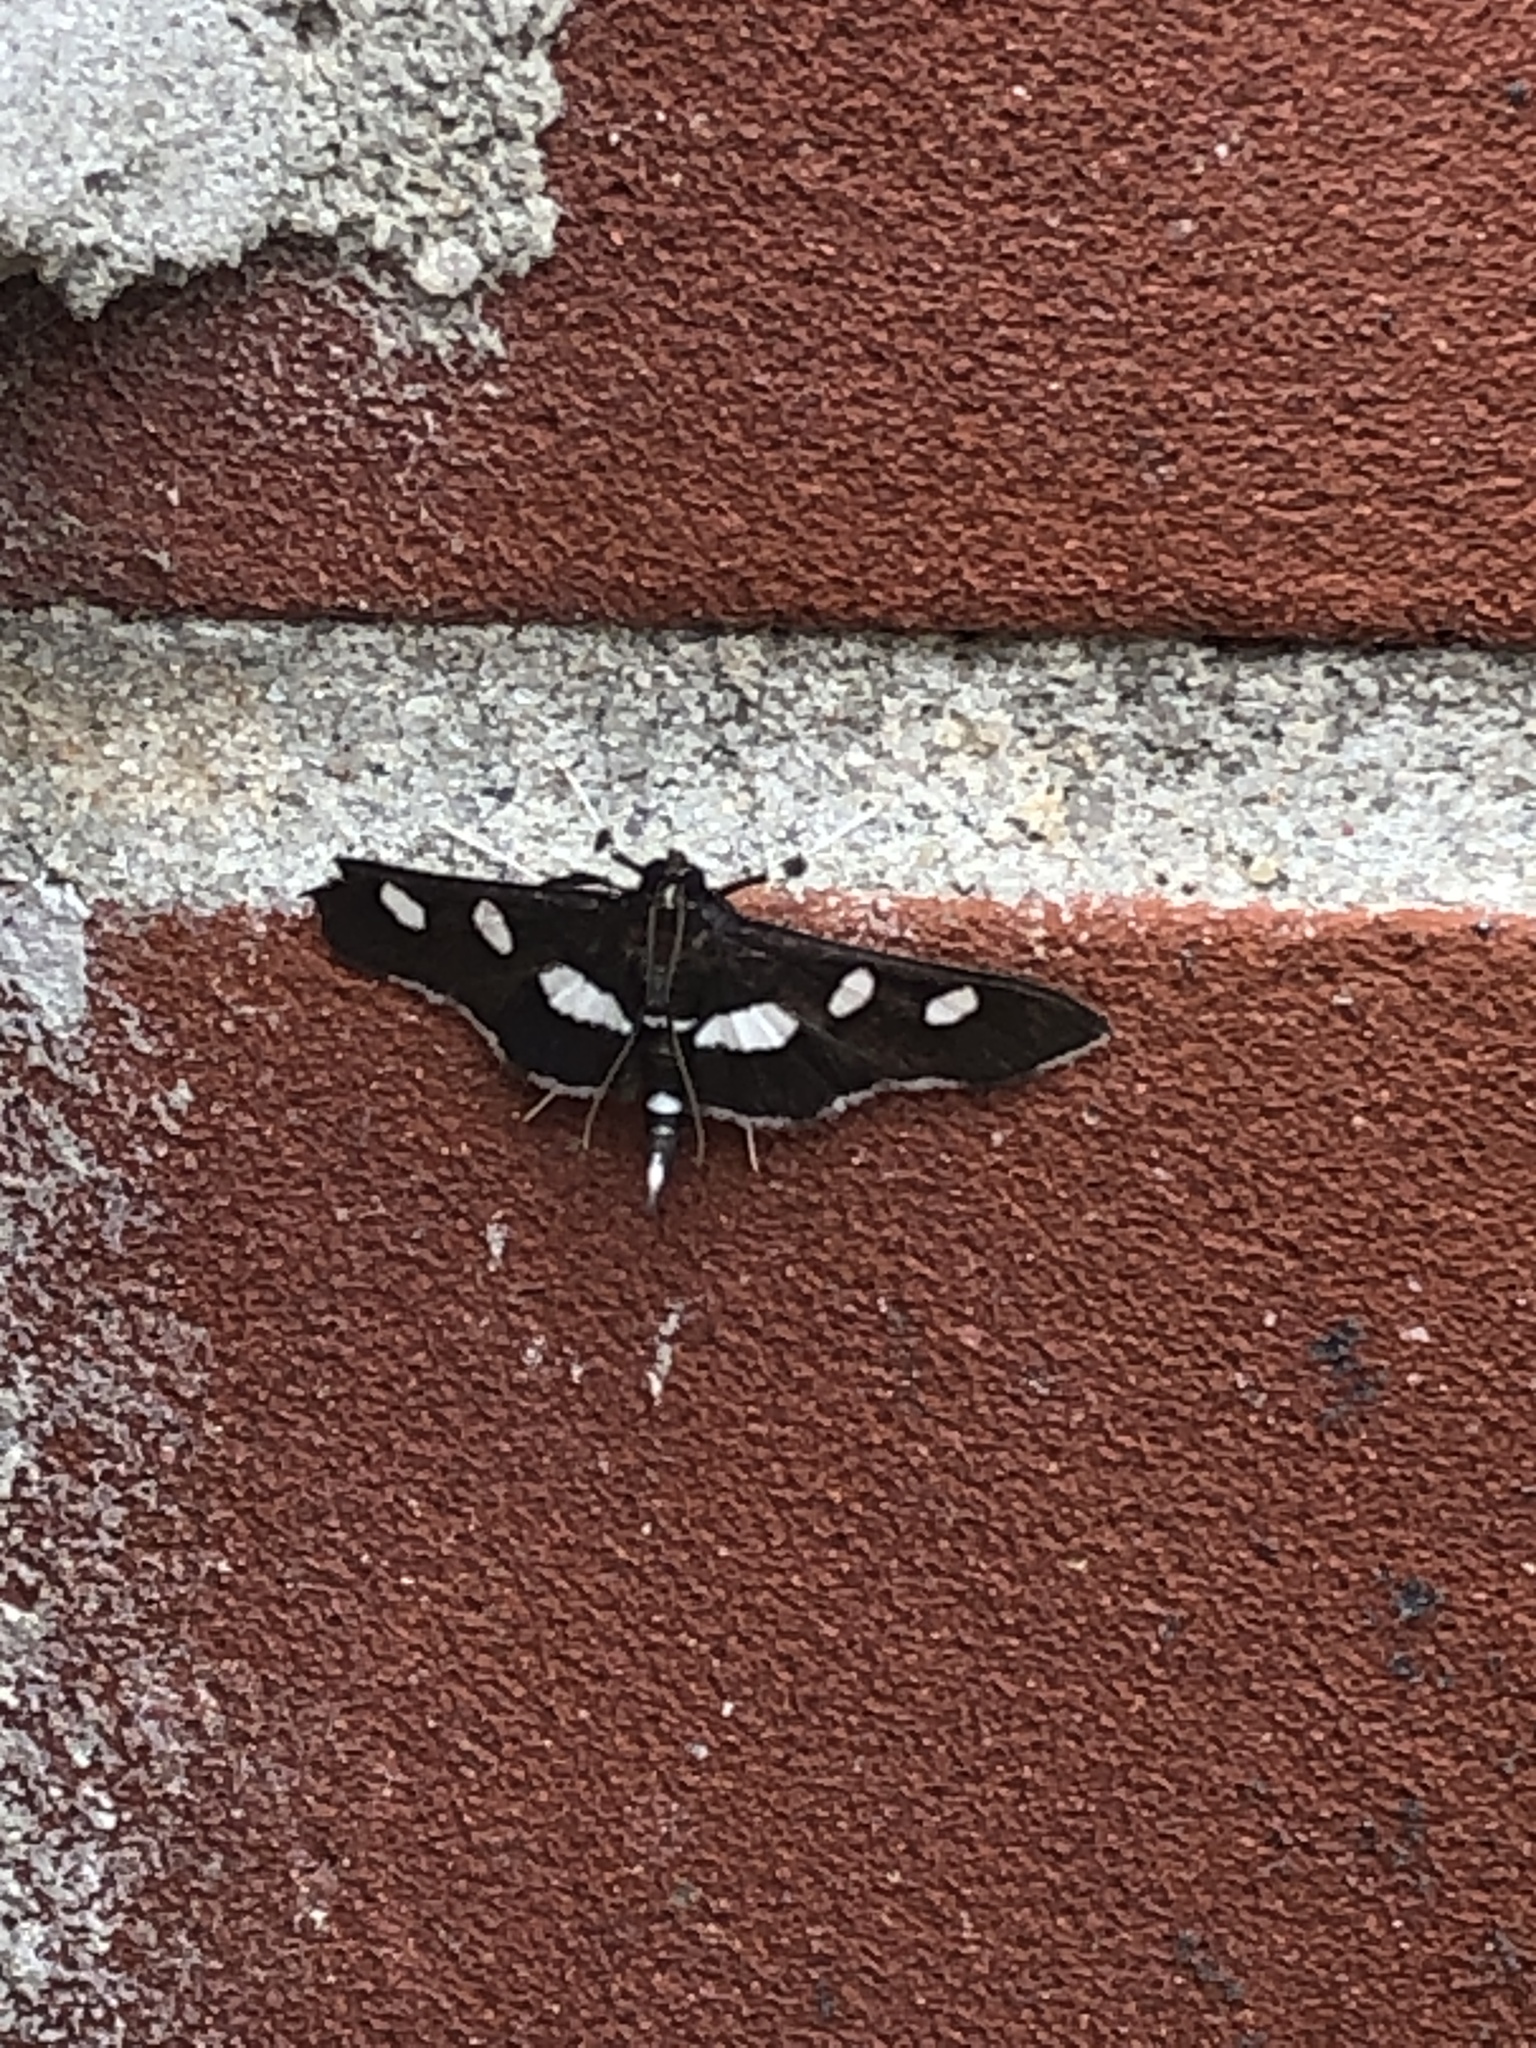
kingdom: Animalia
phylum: Arthropoda
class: Insecta
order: Lepidoptera
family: Crambidae
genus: Desmia
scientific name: Desmia
